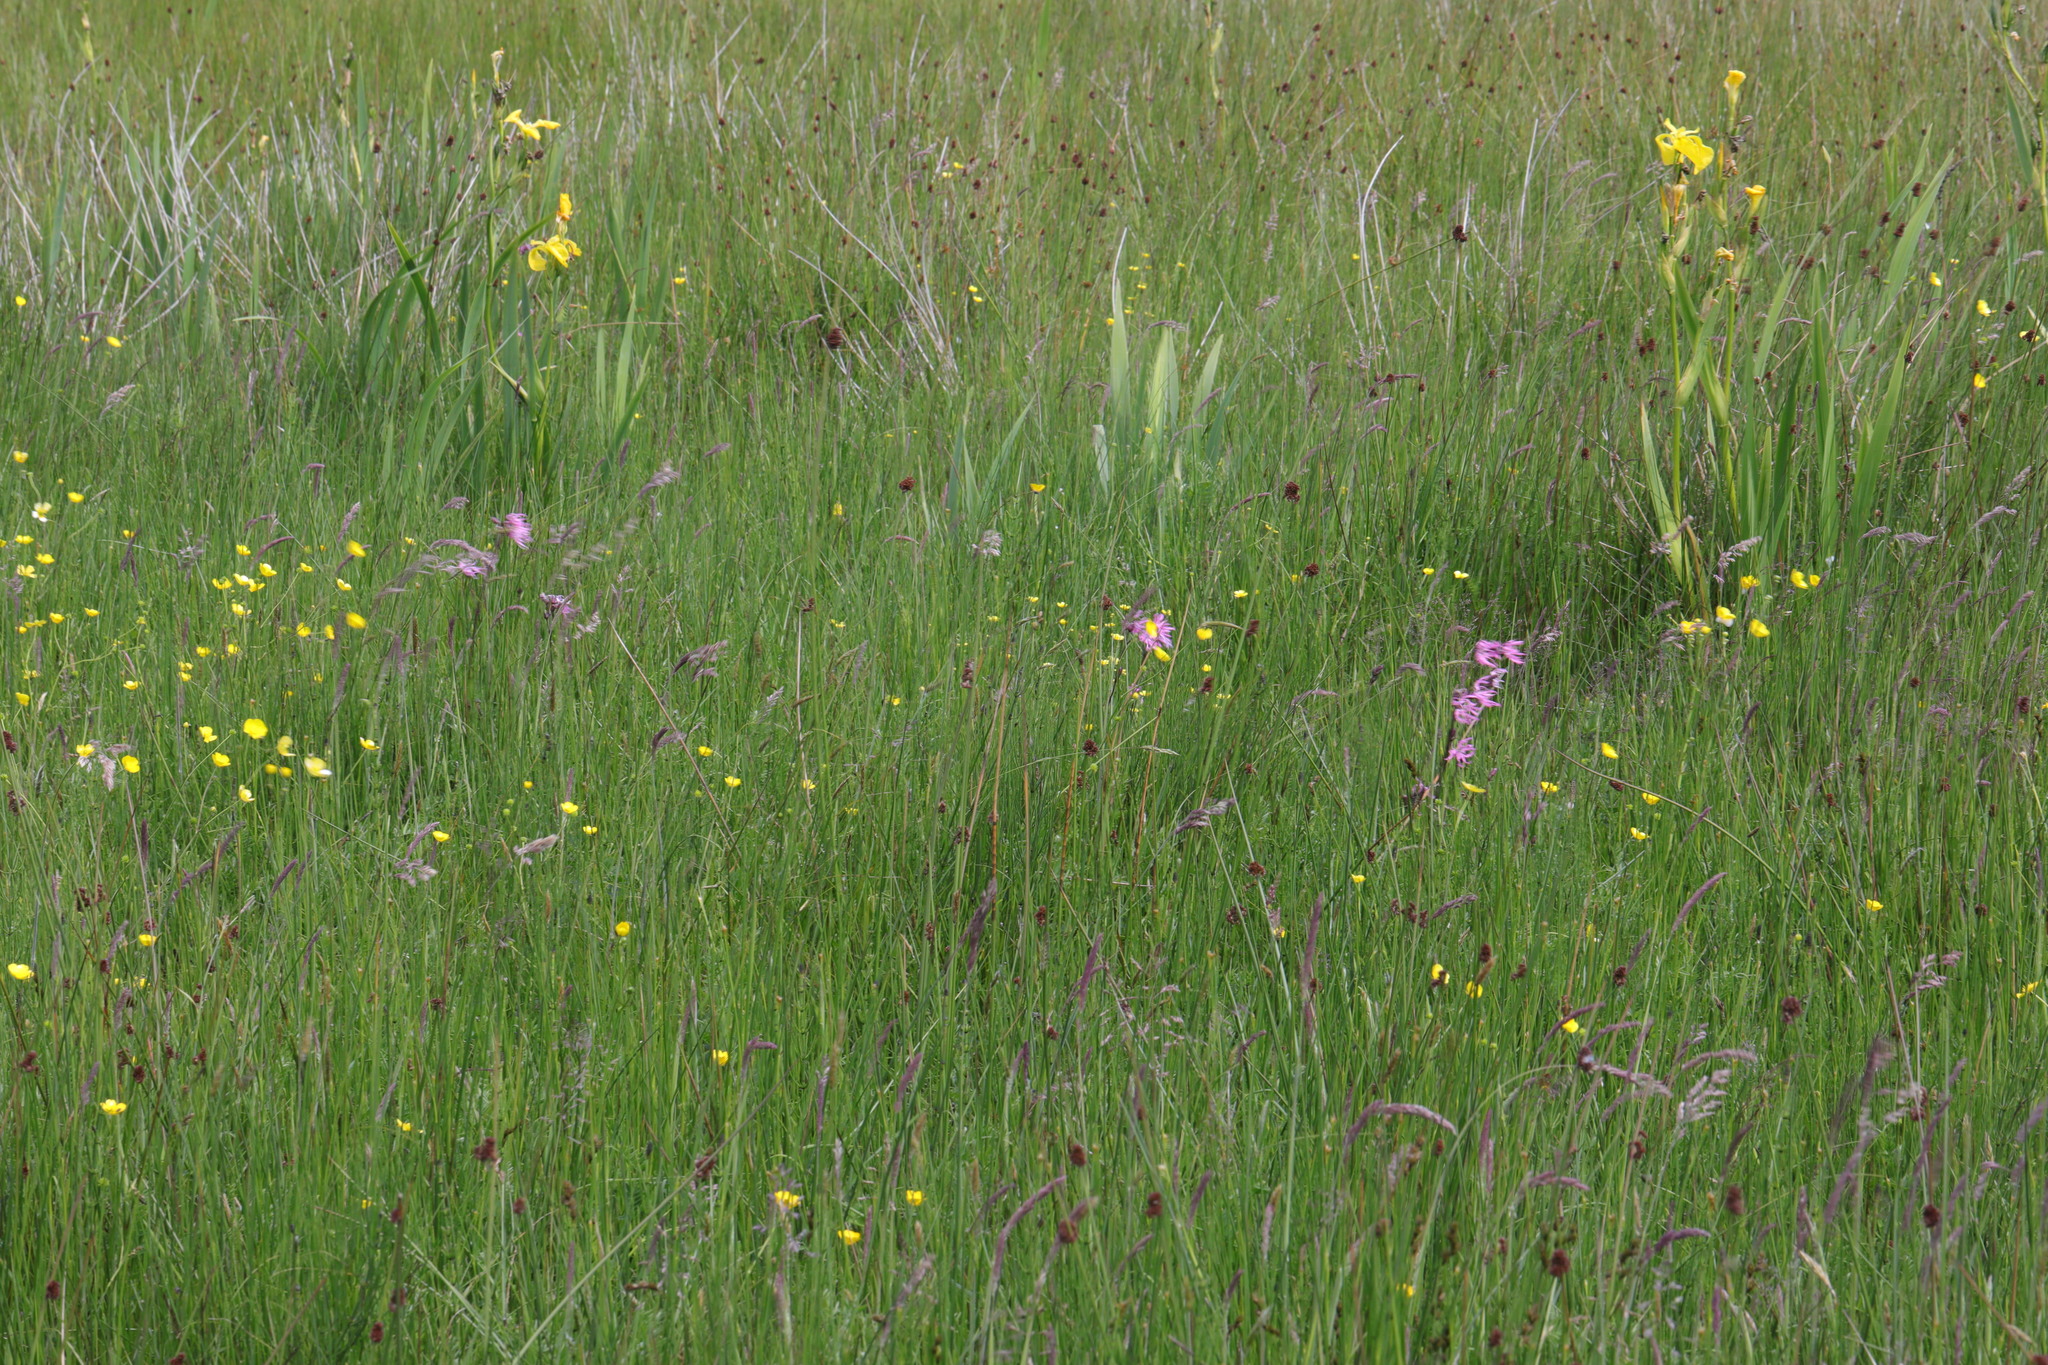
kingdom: Plantae
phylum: Tracheophyta
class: Magnoliopsida
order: Caryophyllales
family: Caryophyllaceae
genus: Silene
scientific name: Silene flos-cuculi
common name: Ragged-robin
